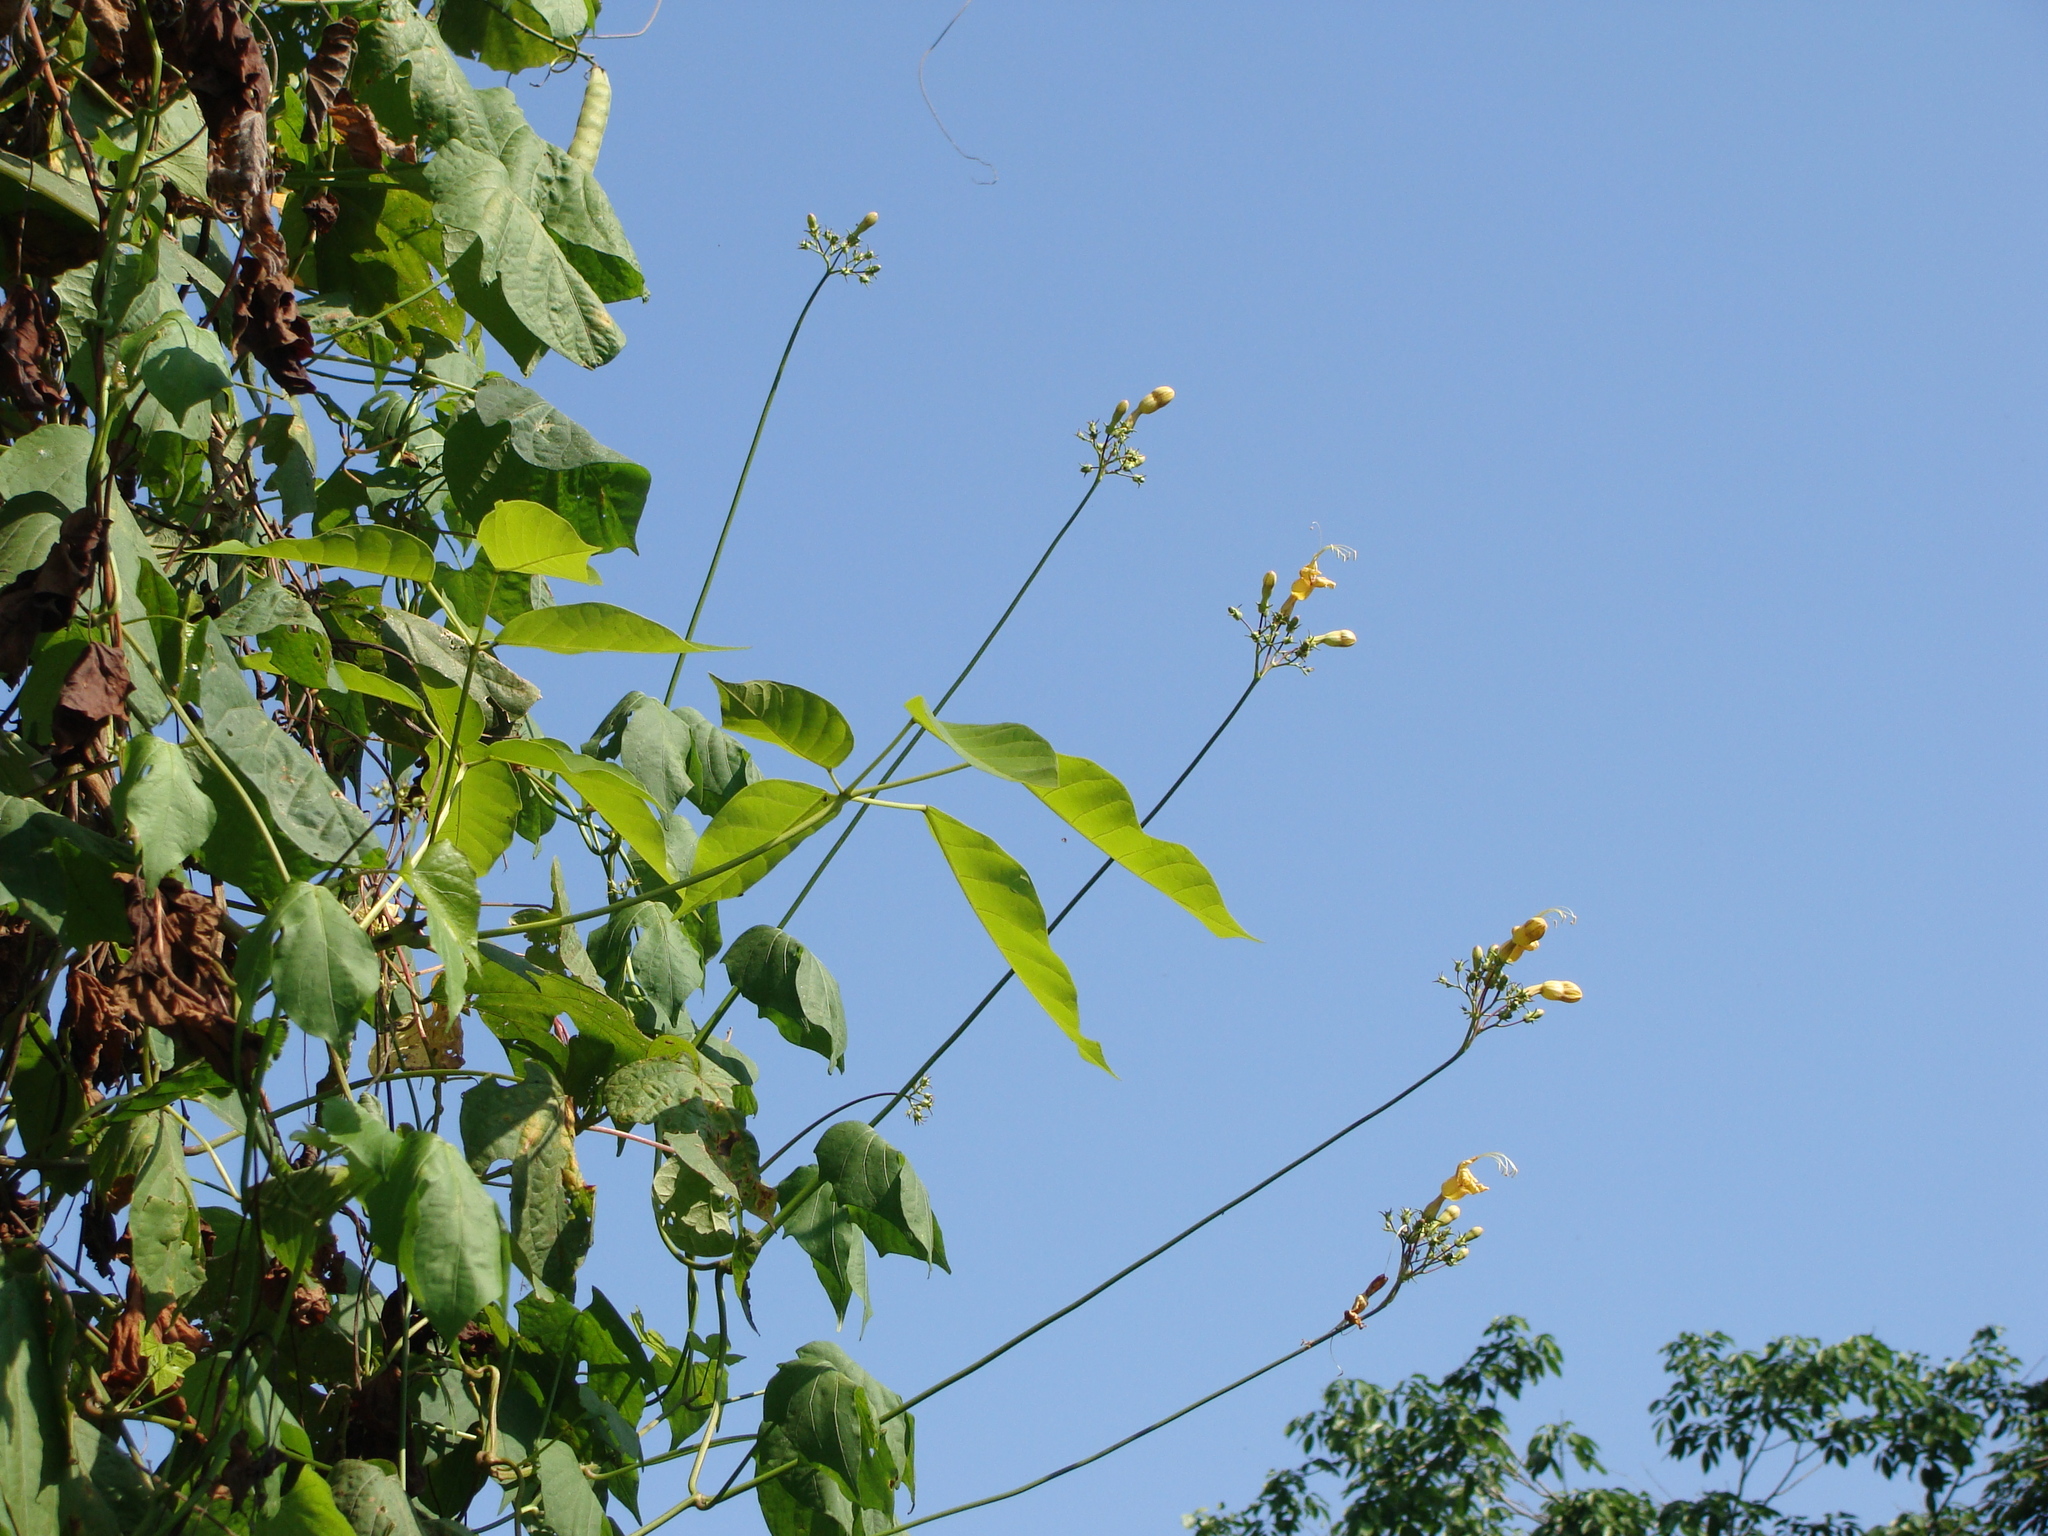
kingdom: Plantae
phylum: Tracheophyta
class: Magnoliopsida
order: Solanales
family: Convolvulaceae
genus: Ipomoea
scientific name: Ipomoea neei
